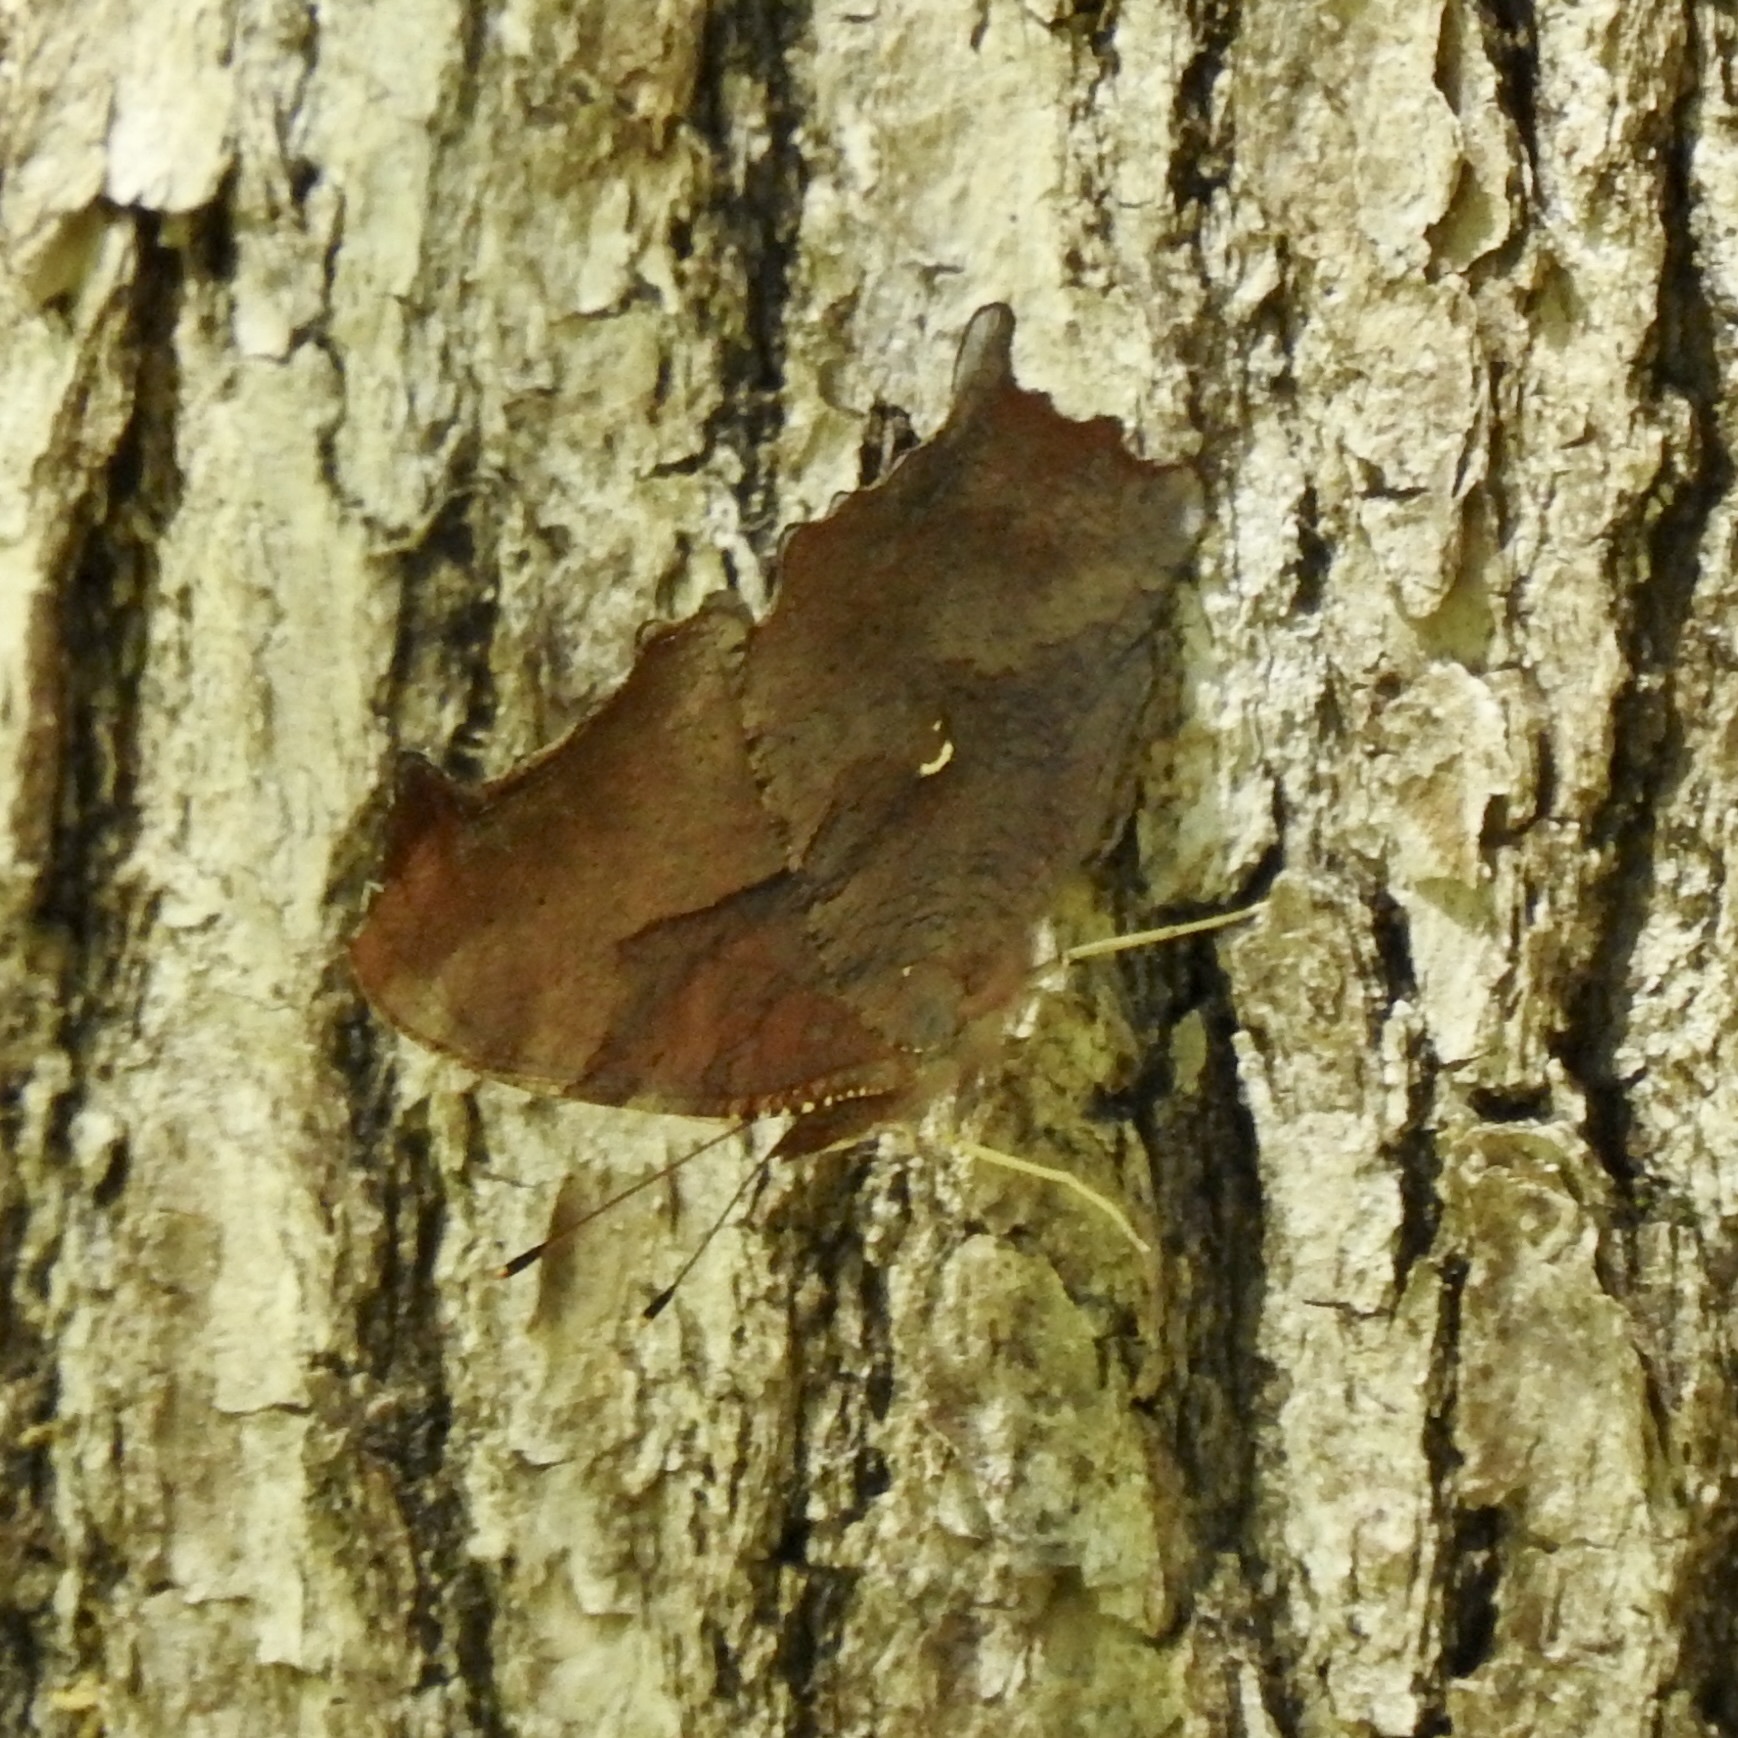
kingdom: Animalia
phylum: Arthropoda
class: Insecta
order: Lepidoptera
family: Nymphalidae
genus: Polygonia
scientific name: Polygonia interrogationis
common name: Question mark
